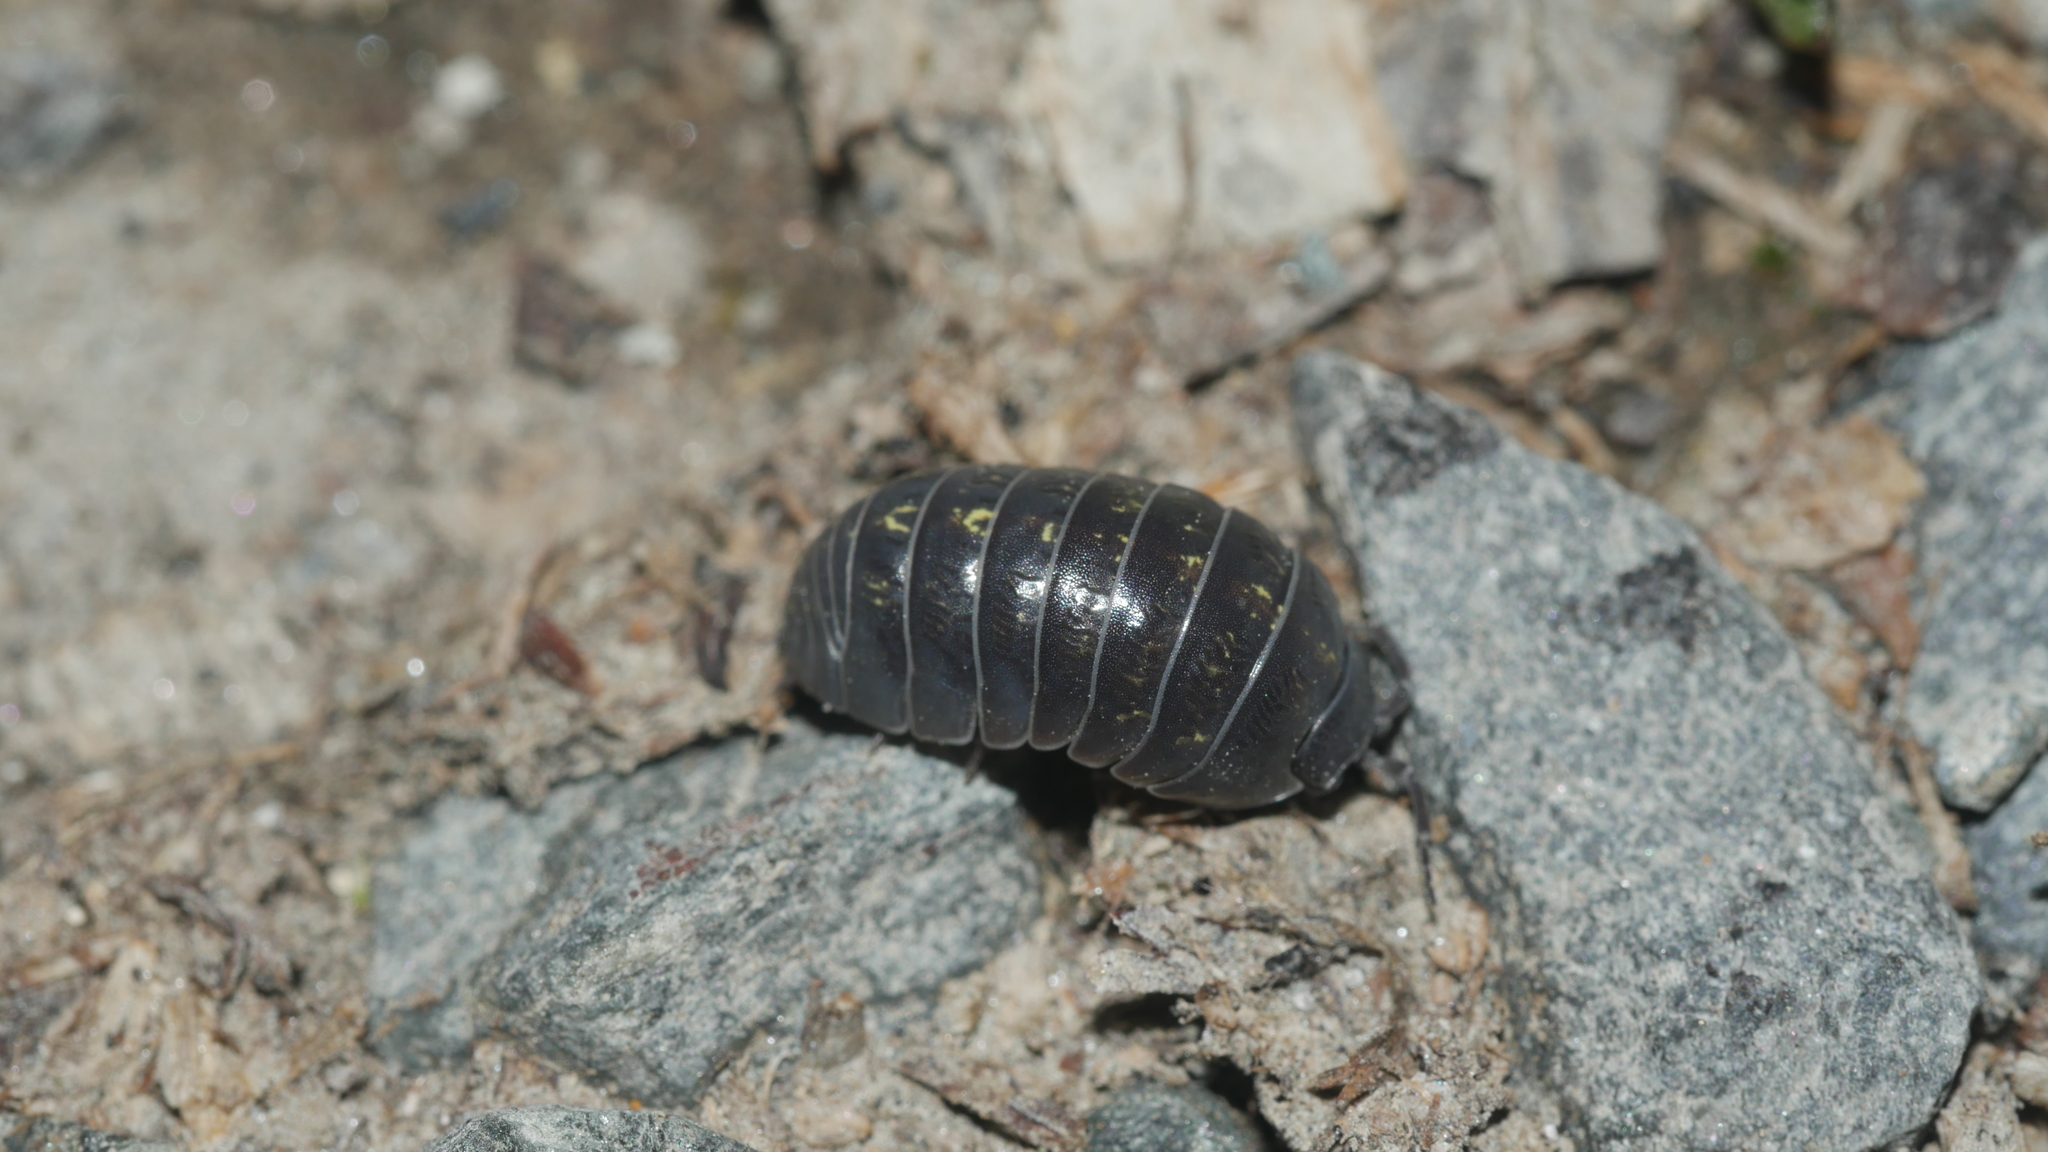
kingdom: Animalia
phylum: Arthropoda
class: Malacostraca
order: Isopoda
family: Armadillidiidae
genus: Armadillidium
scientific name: Armadillidium vulgare
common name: Common pill woodlouse
